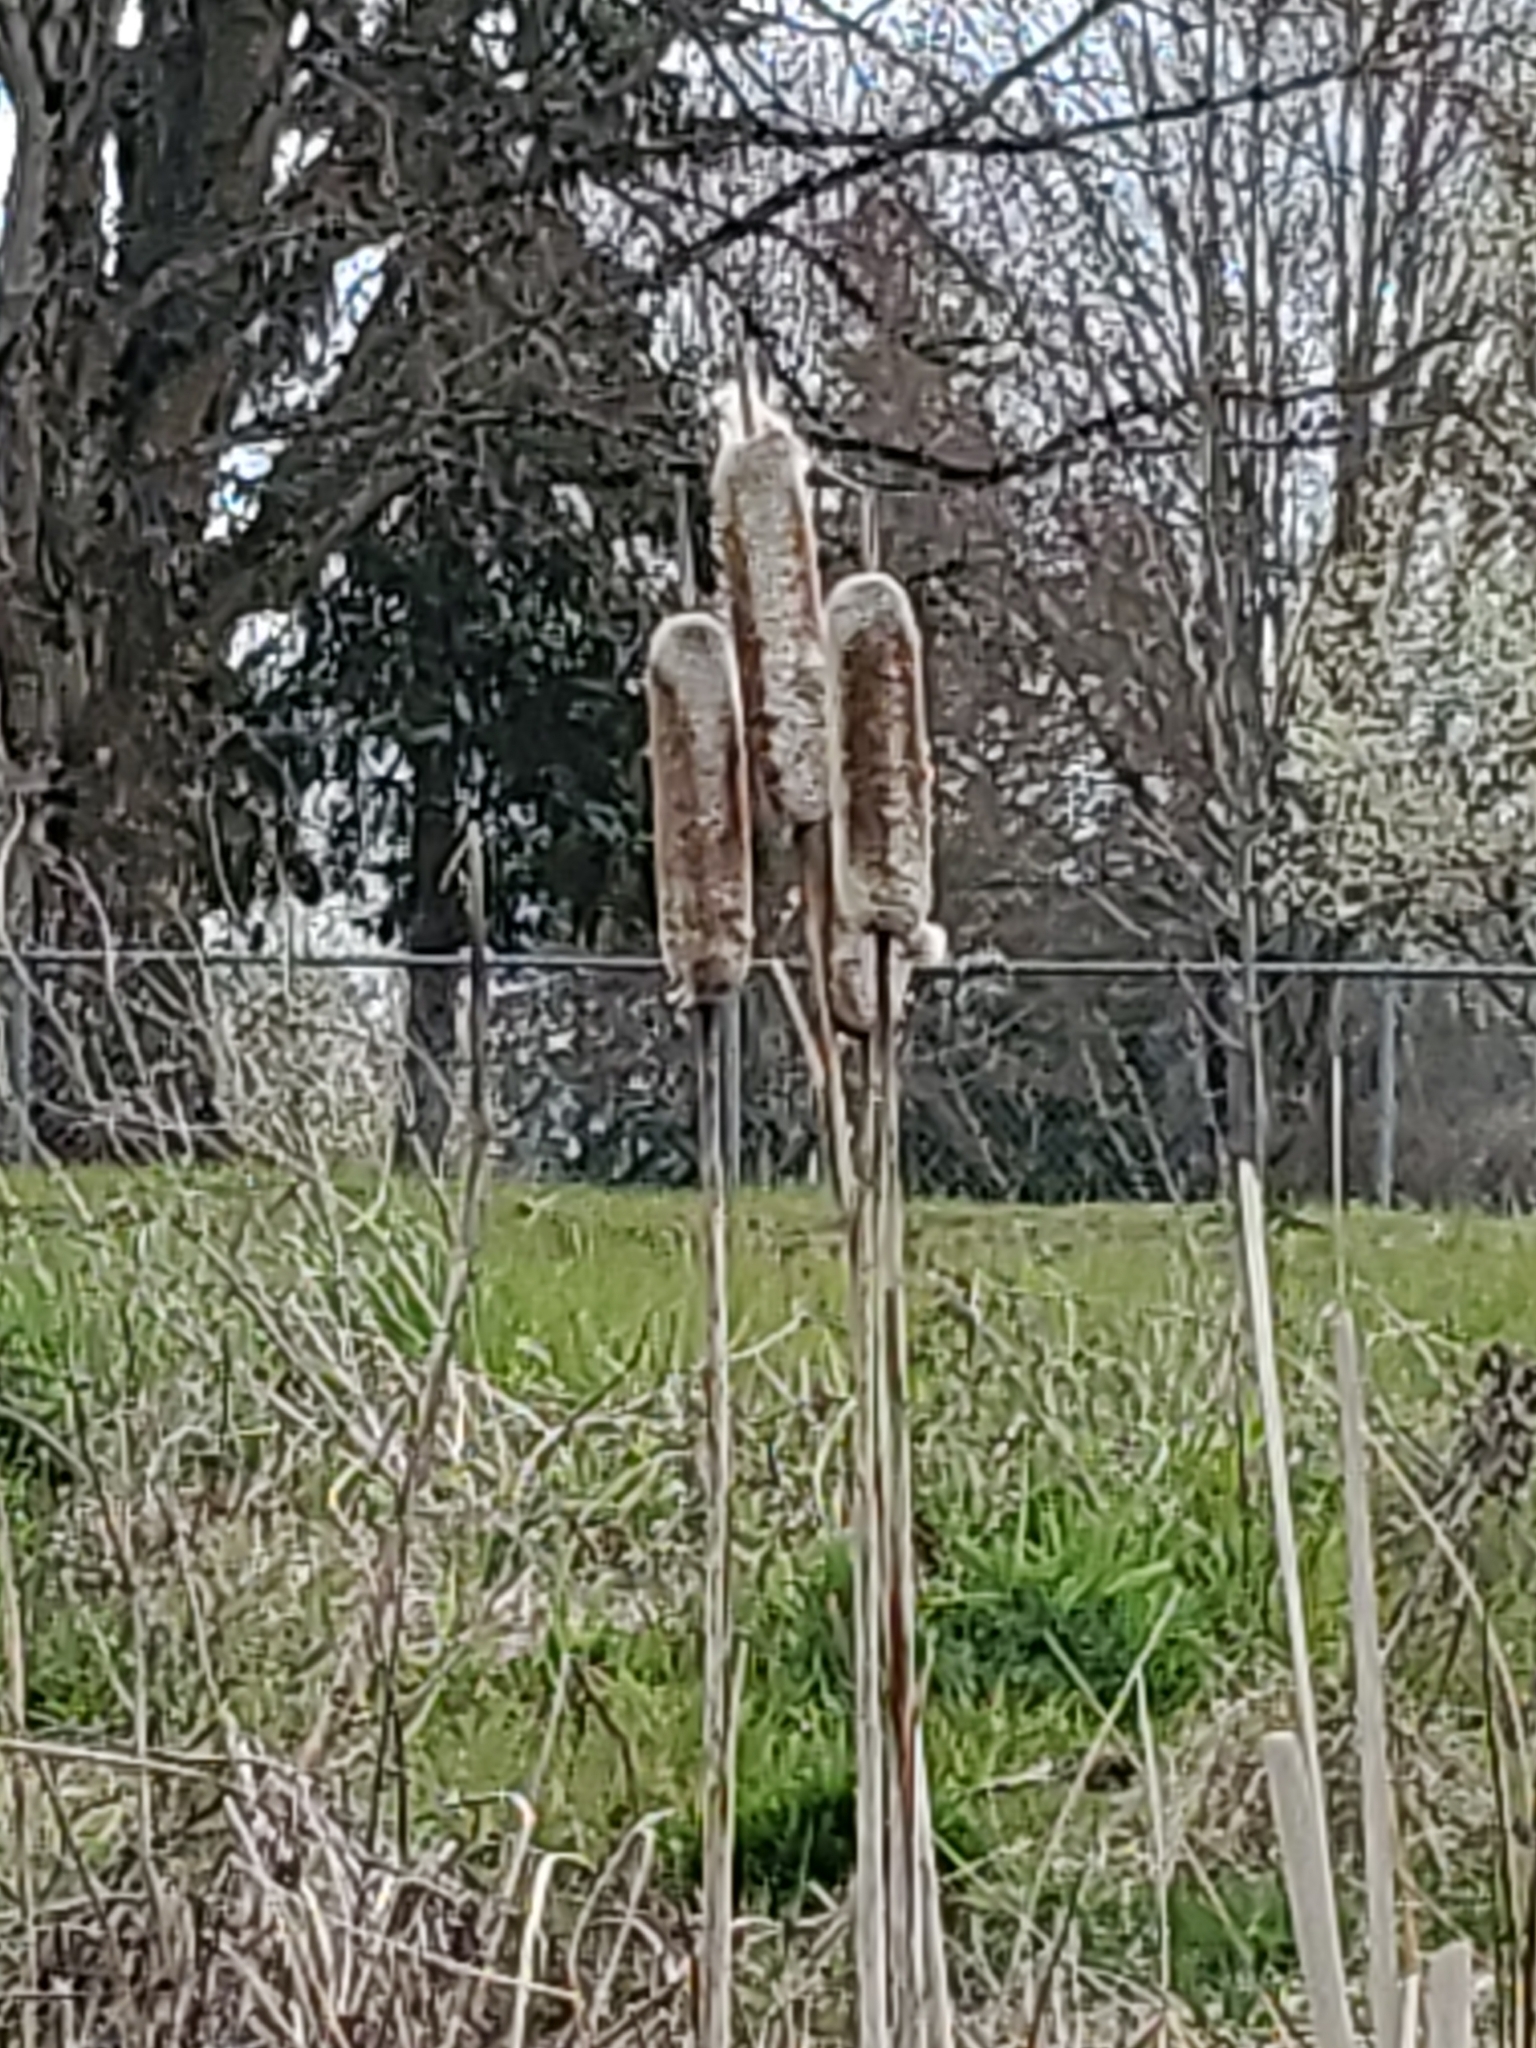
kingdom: Plantae
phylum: Tracheophyta
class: Liliopsida
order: Poales
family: Typhaceae
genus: Typha
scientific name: Typha latifolia
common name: Broadleaf cattail
